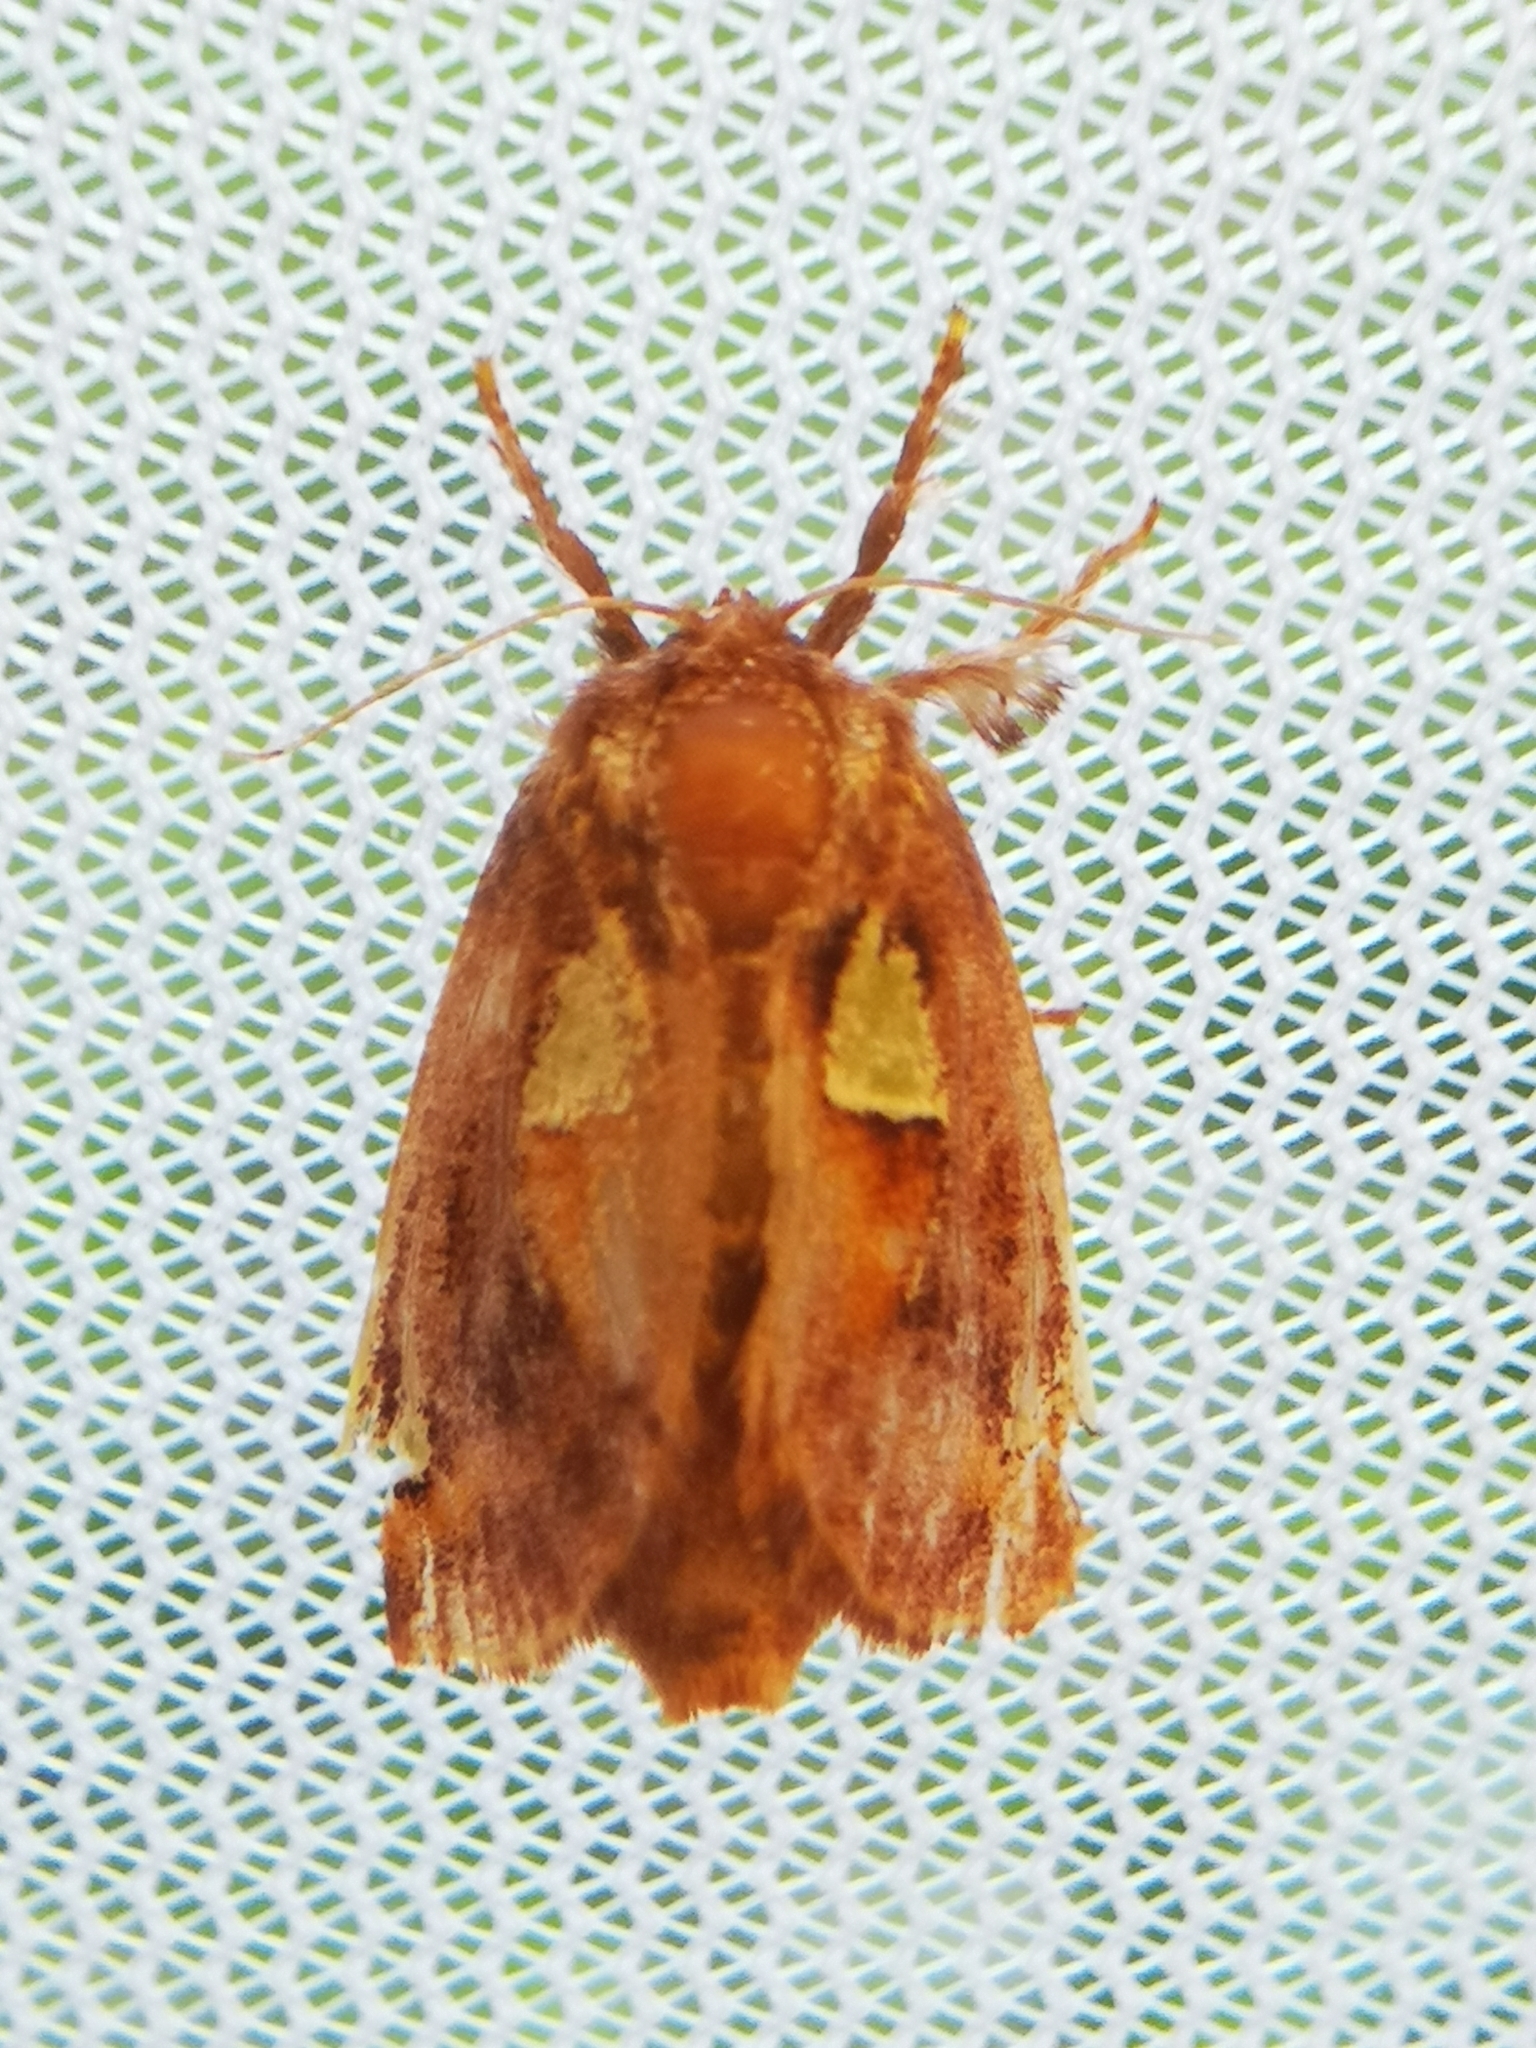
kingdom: Animalia
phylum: Arthropoda
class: Insecta
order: Lepidoptera
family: Limacodidae
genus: Euclea
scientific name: Euclea delphinii
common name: Spiny oak-slug moth
